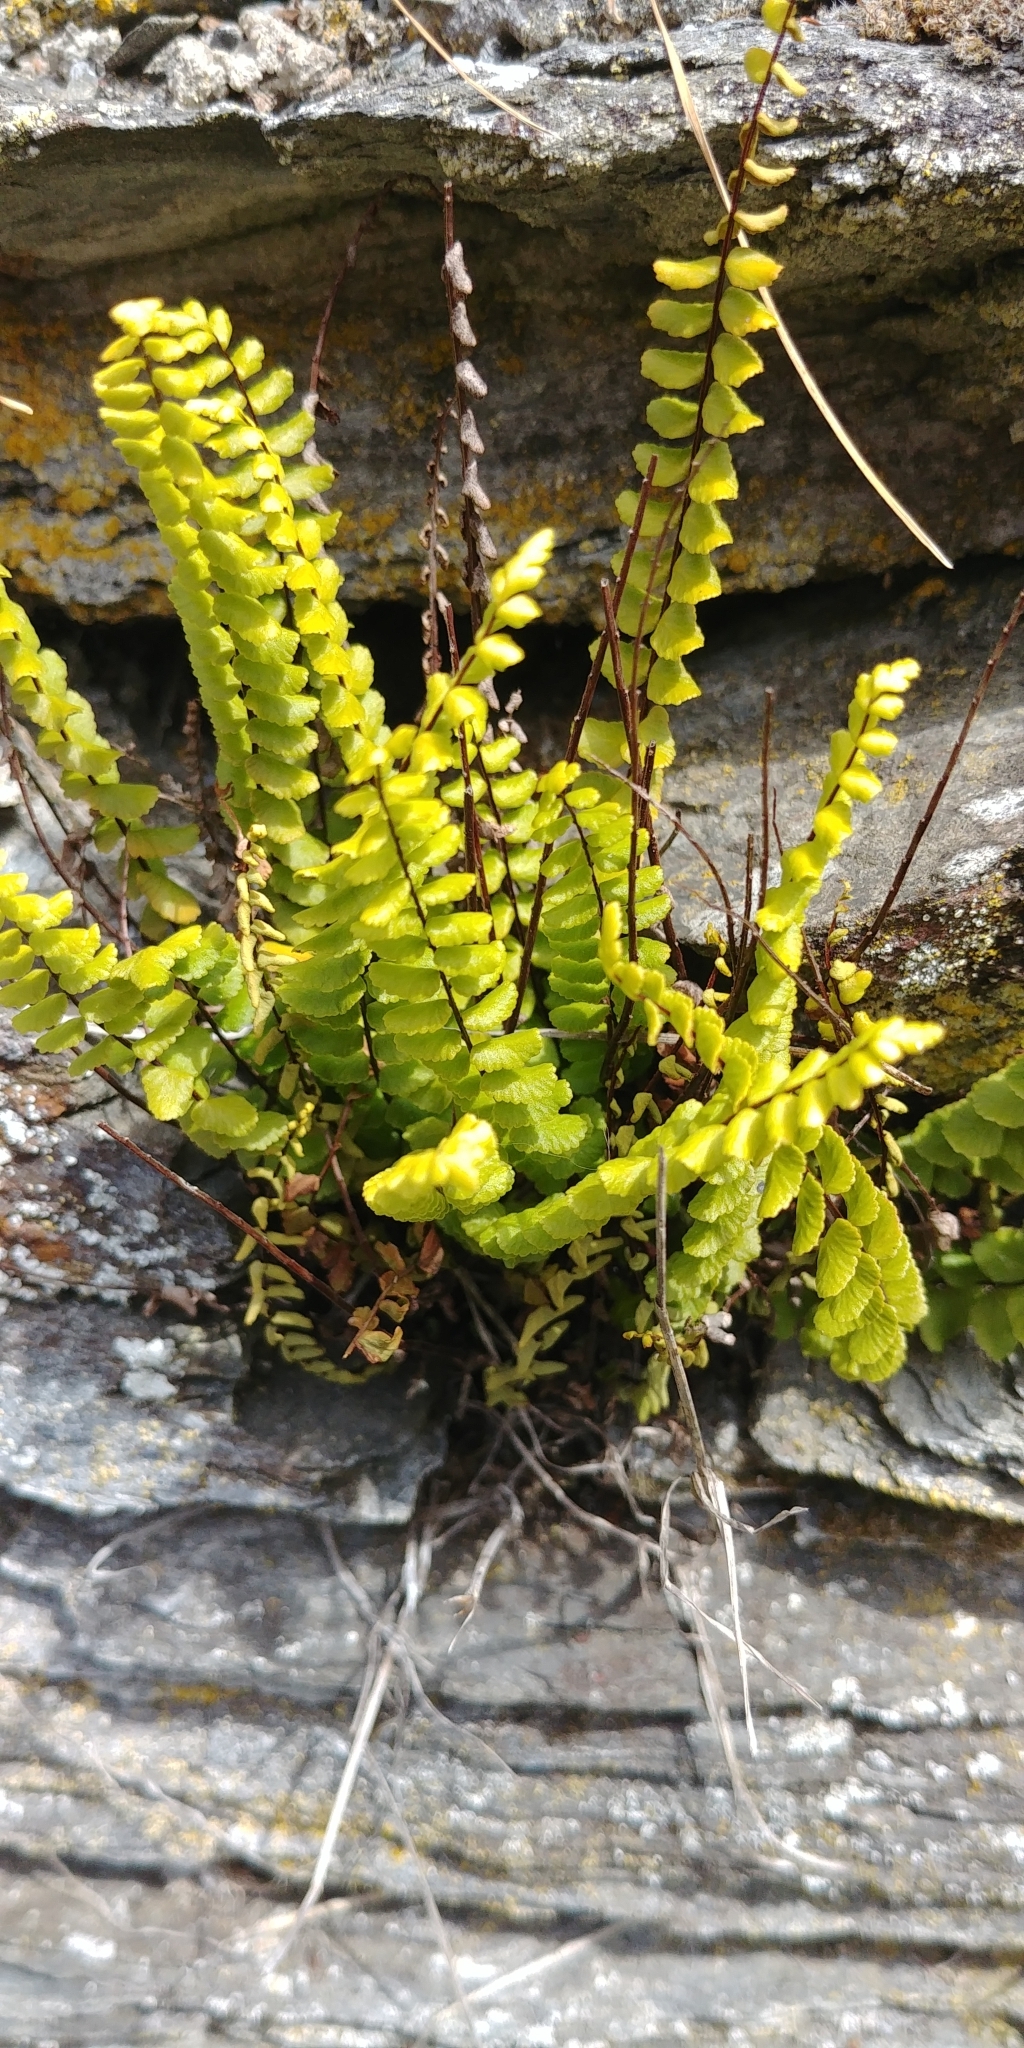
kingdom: Plantae
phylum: Tracheophyta
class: Polypodiopsida
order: Polypodiales
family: Aspleniaceae
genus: Asplenium
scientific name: Asplenium trichomanes
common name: Maidenhair spleenwort
